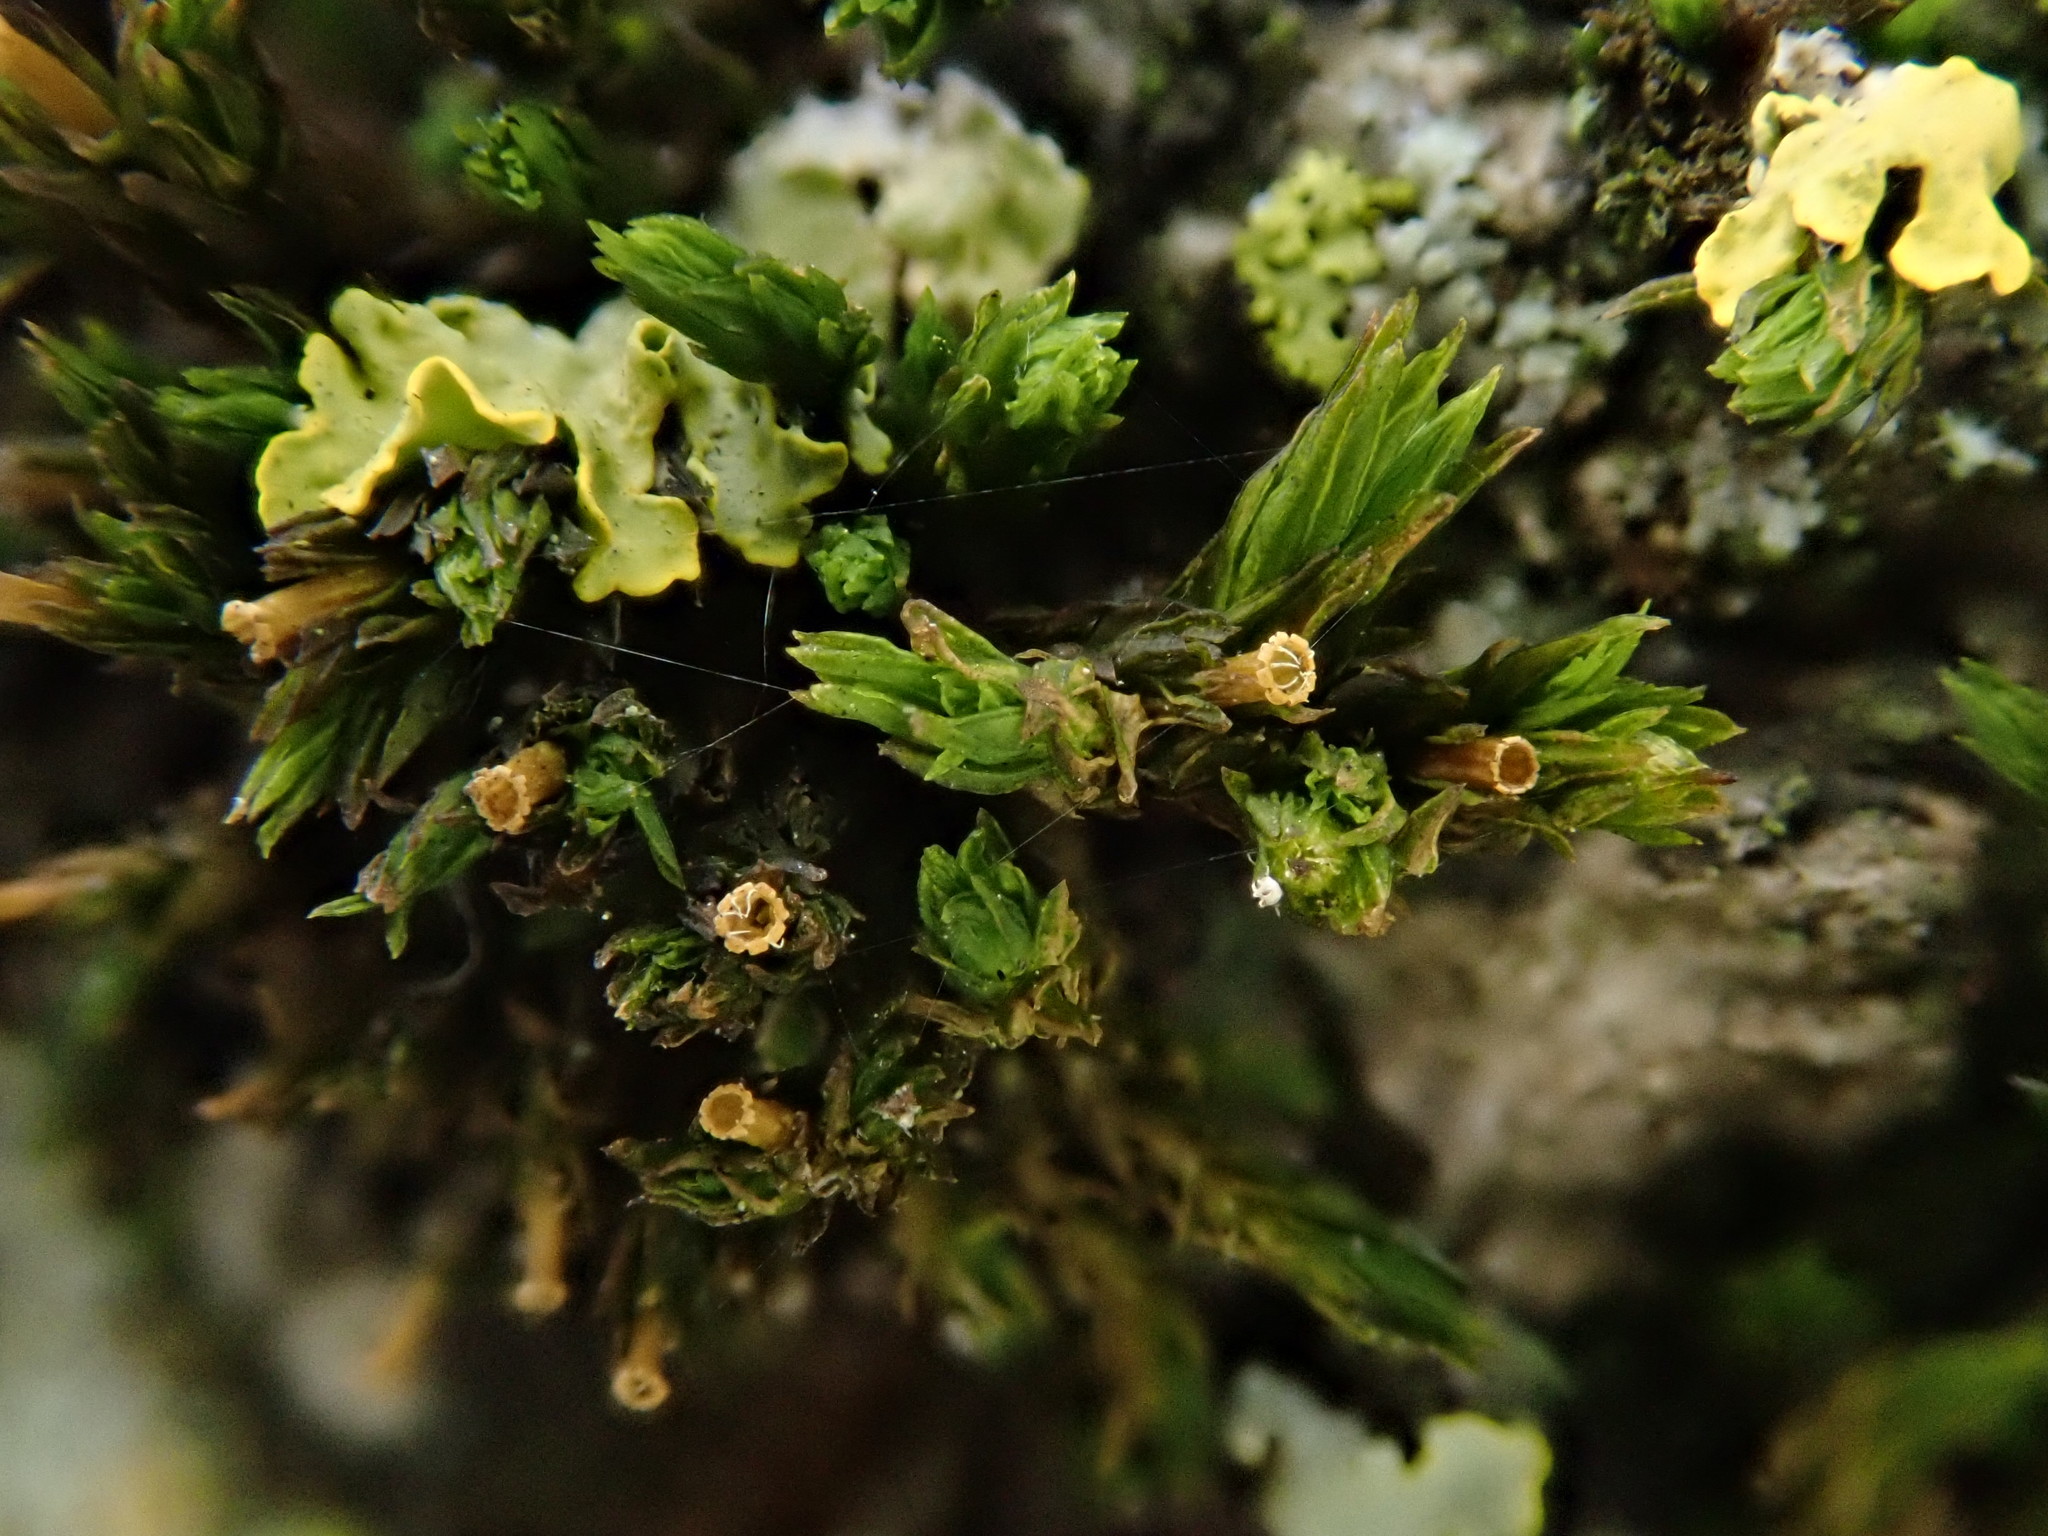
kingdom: Plantae
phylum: Bryophyta
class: Bryopsida
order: Orthotrichales
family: Orthotrichaceae
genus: Lewinskya
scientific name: Lewinskya affinis
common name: Wood bristle-moss
